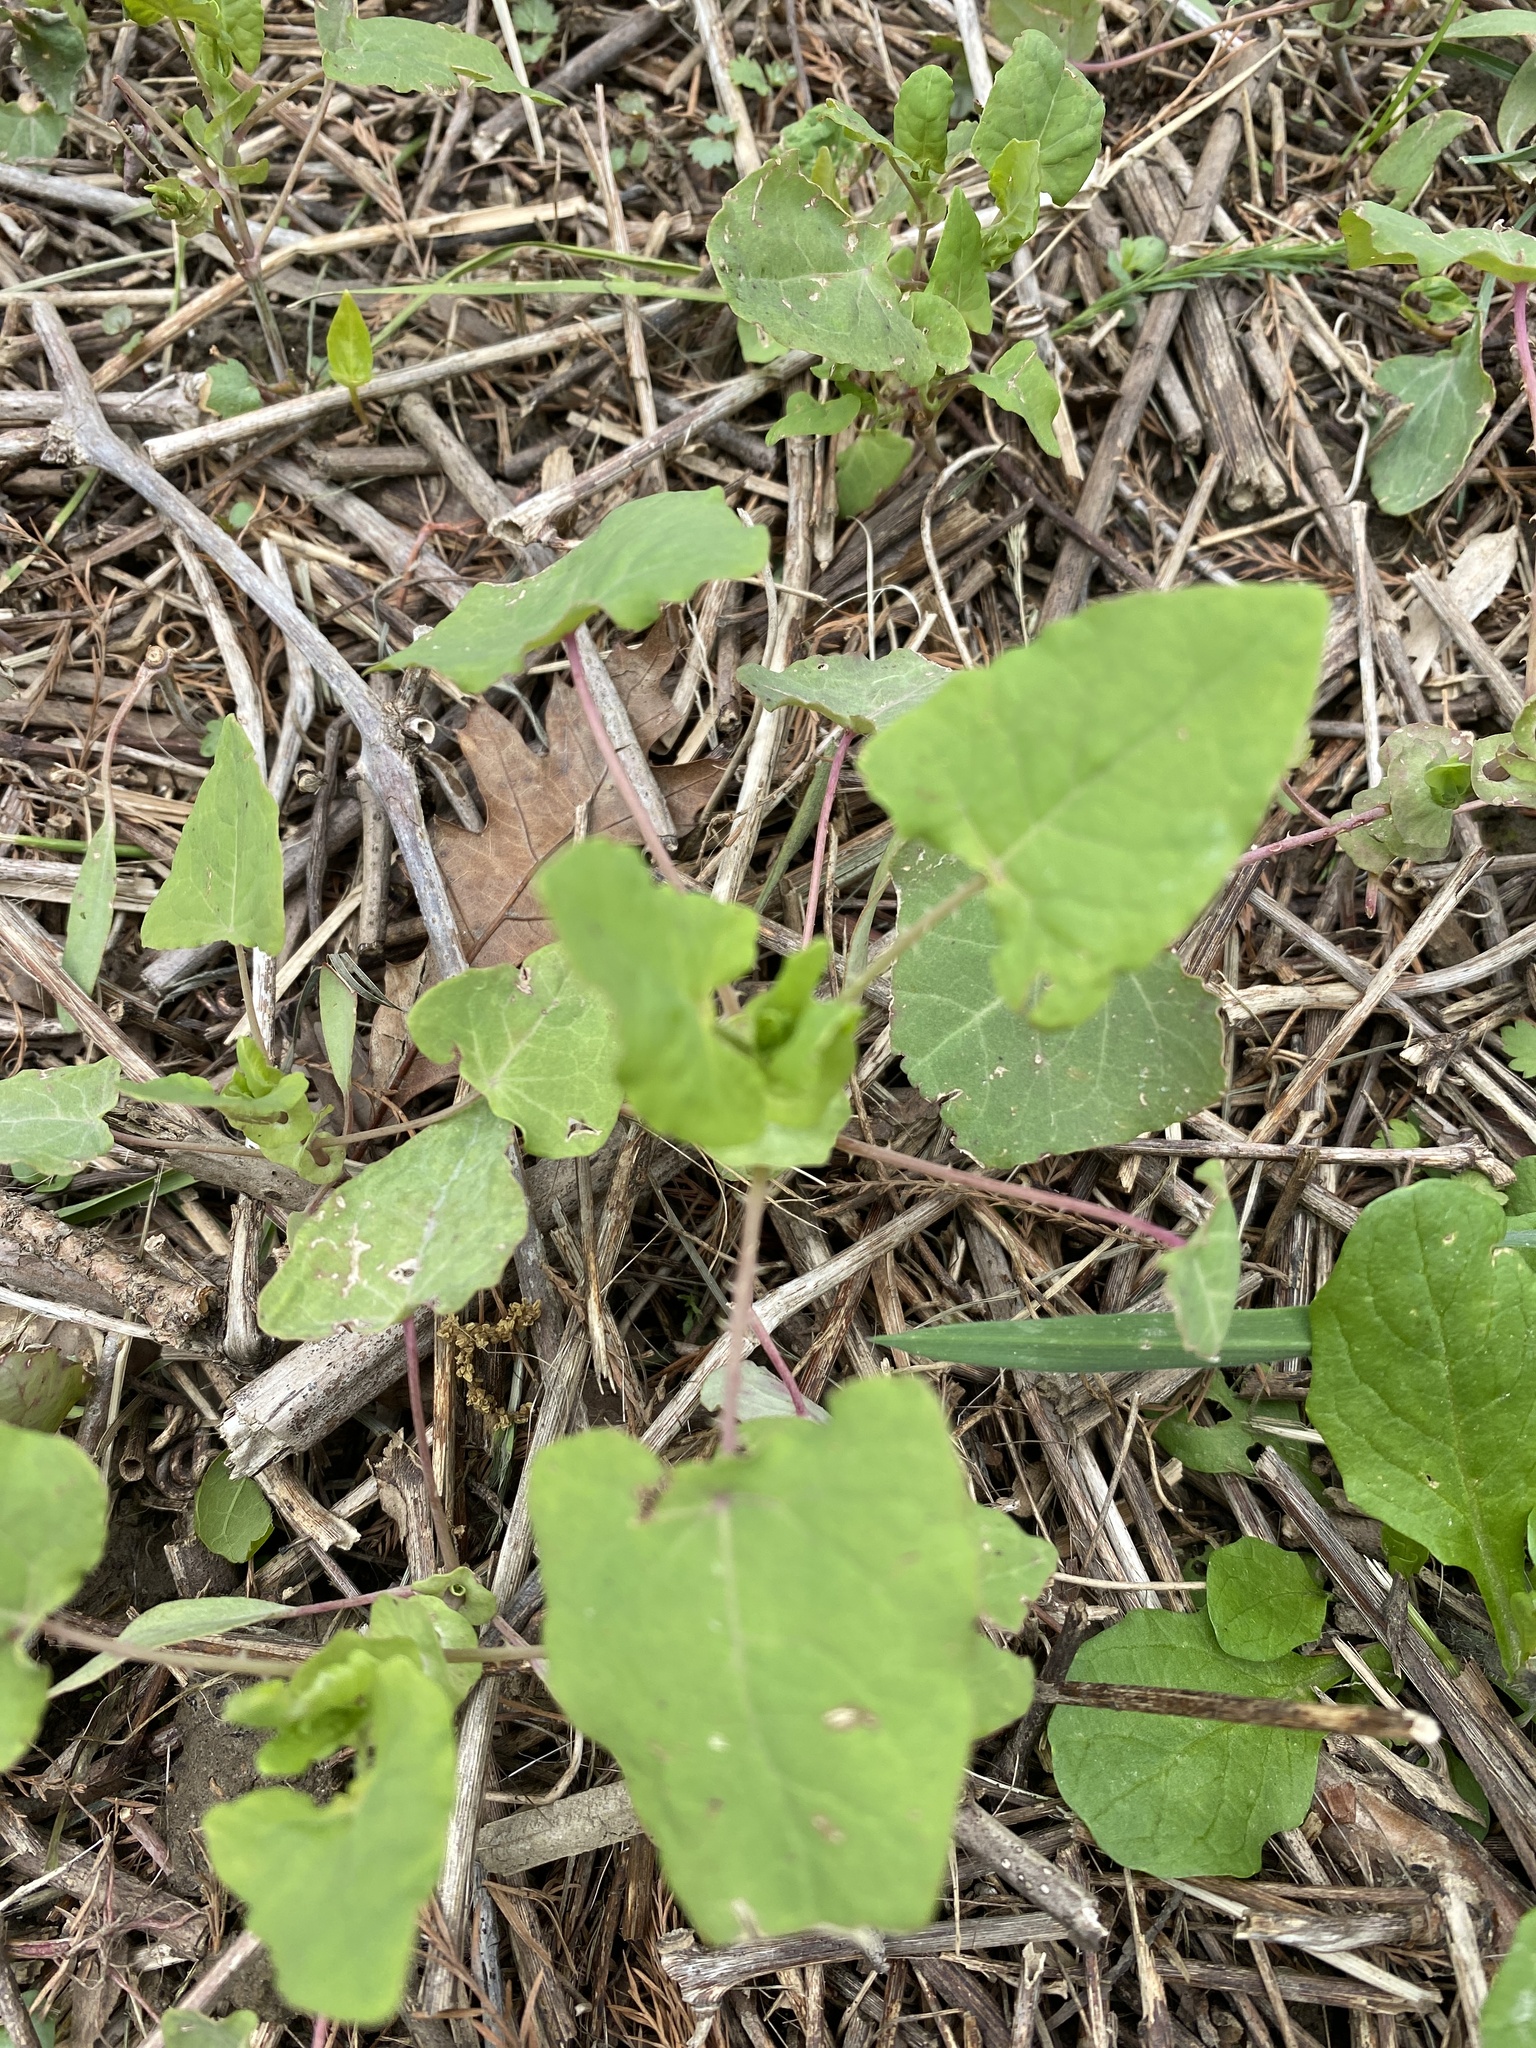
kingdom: Plantae
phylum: Tracheophyta
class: Magnoliopsida
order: Caryophyllales
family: Polygonaceae
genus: Persicaria
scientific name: Persicaria perfoliata
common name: Asiatic tearthumb
